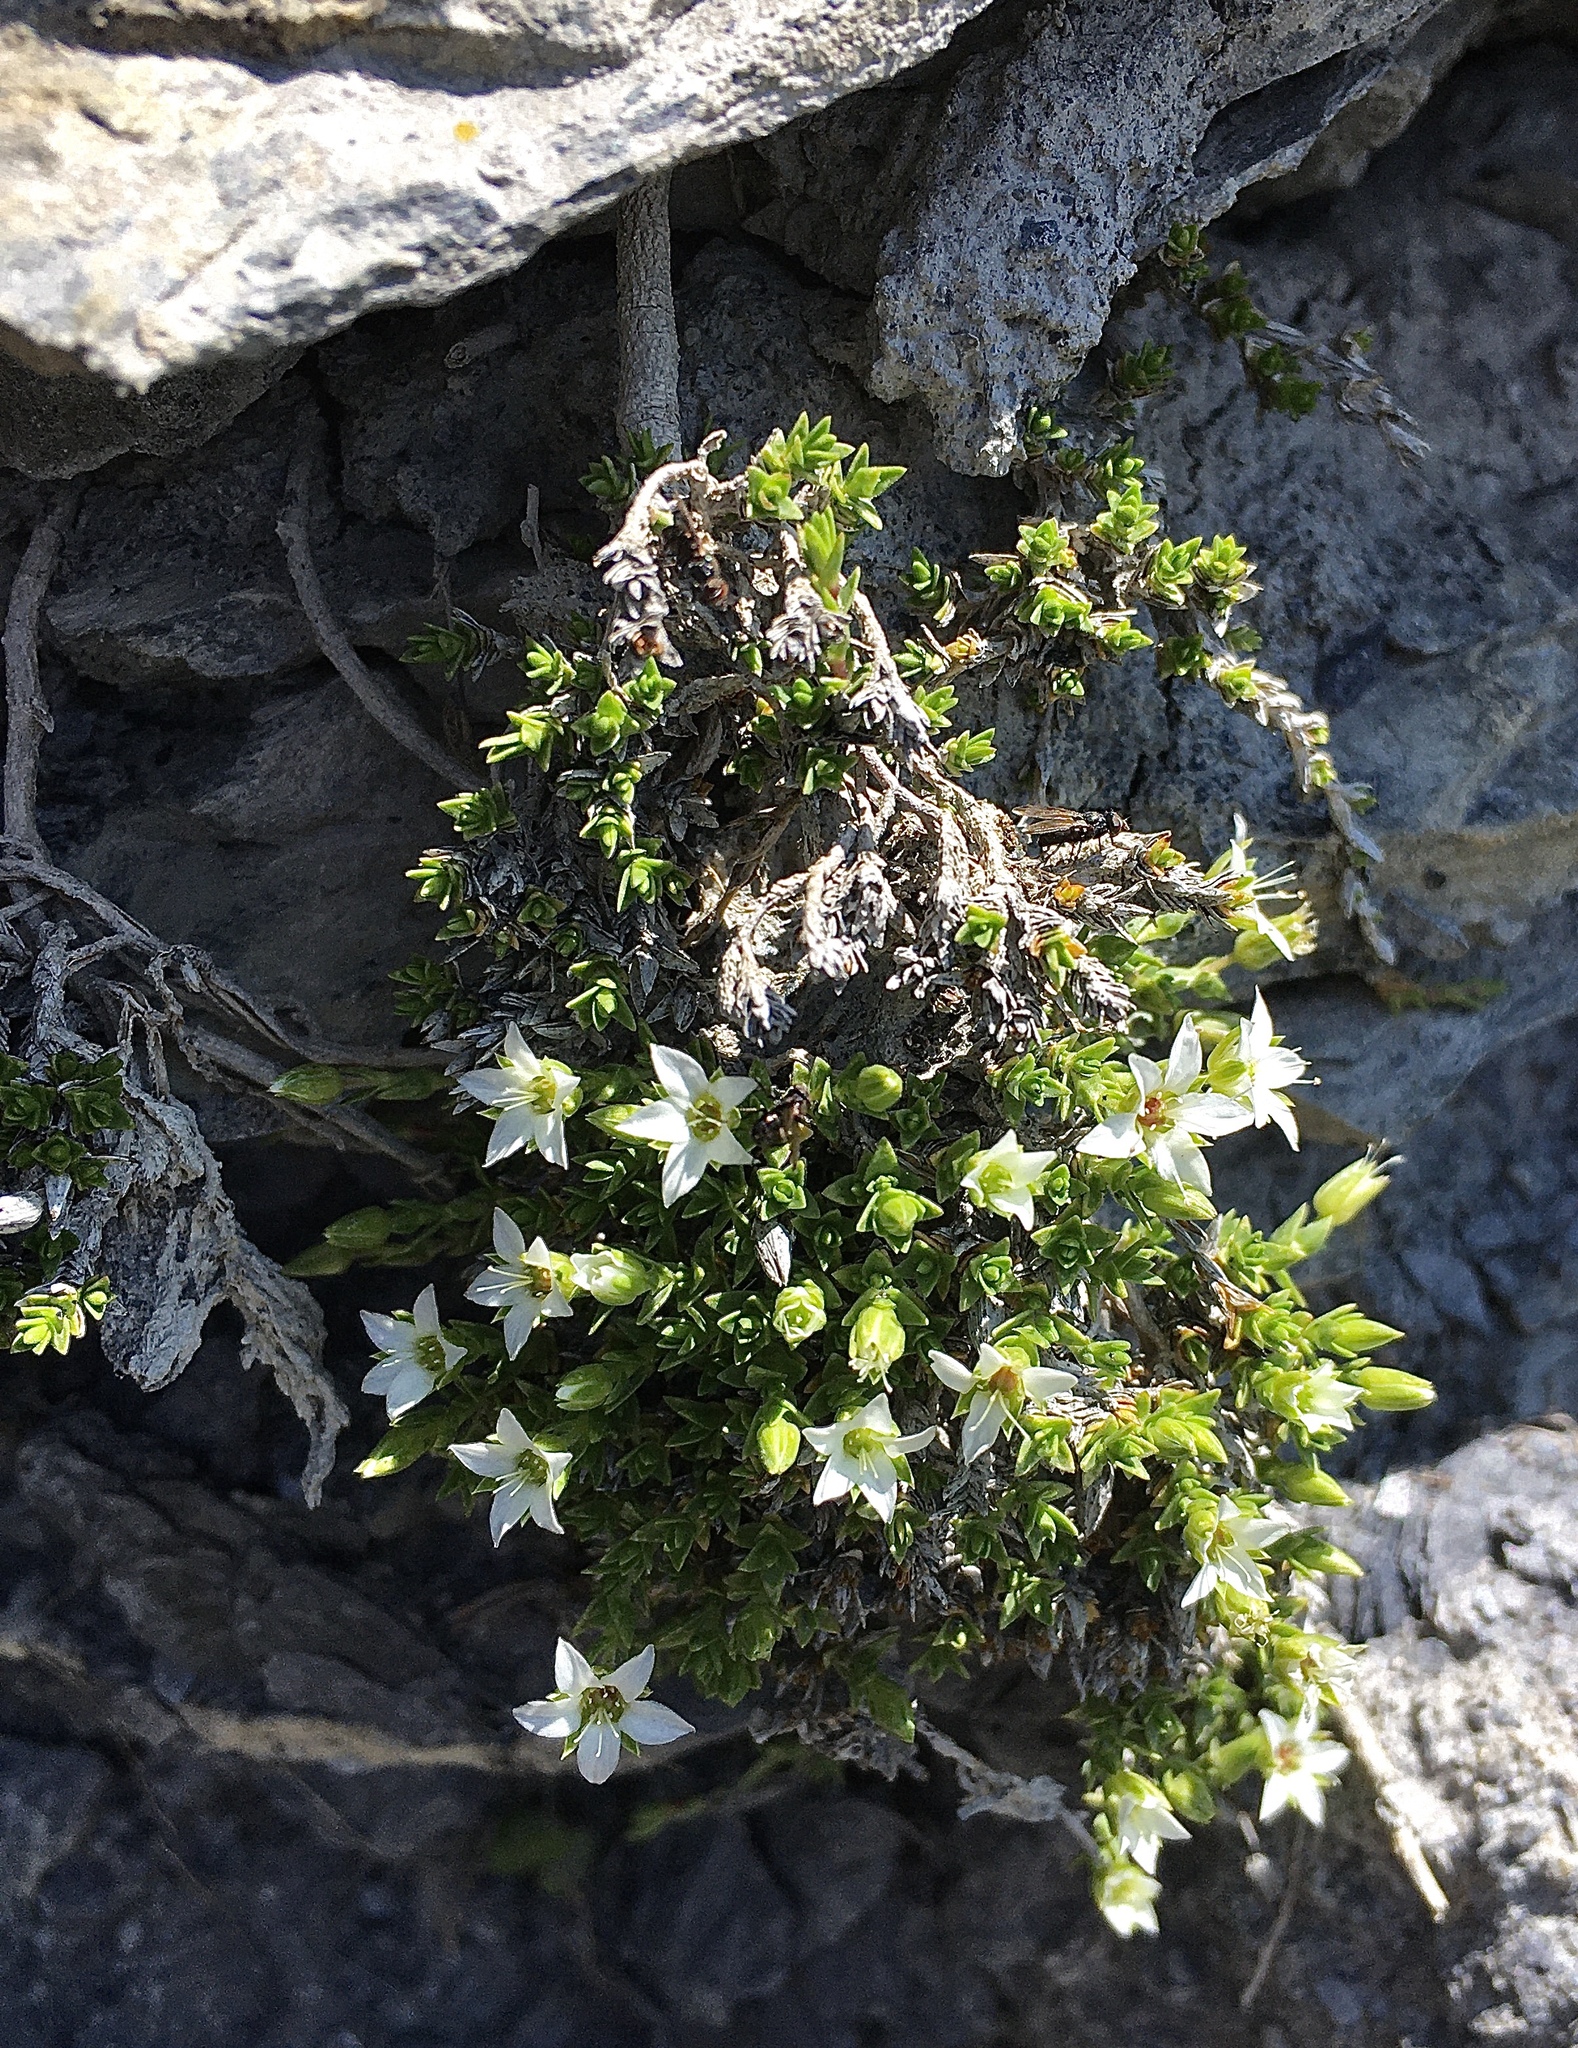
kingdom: Plantae
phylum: Tracheophyta
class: Magnoliopsida
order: Caryophyllales
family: Caryophyllaceae
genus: Facchinia
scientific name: Facchinia rupestris
